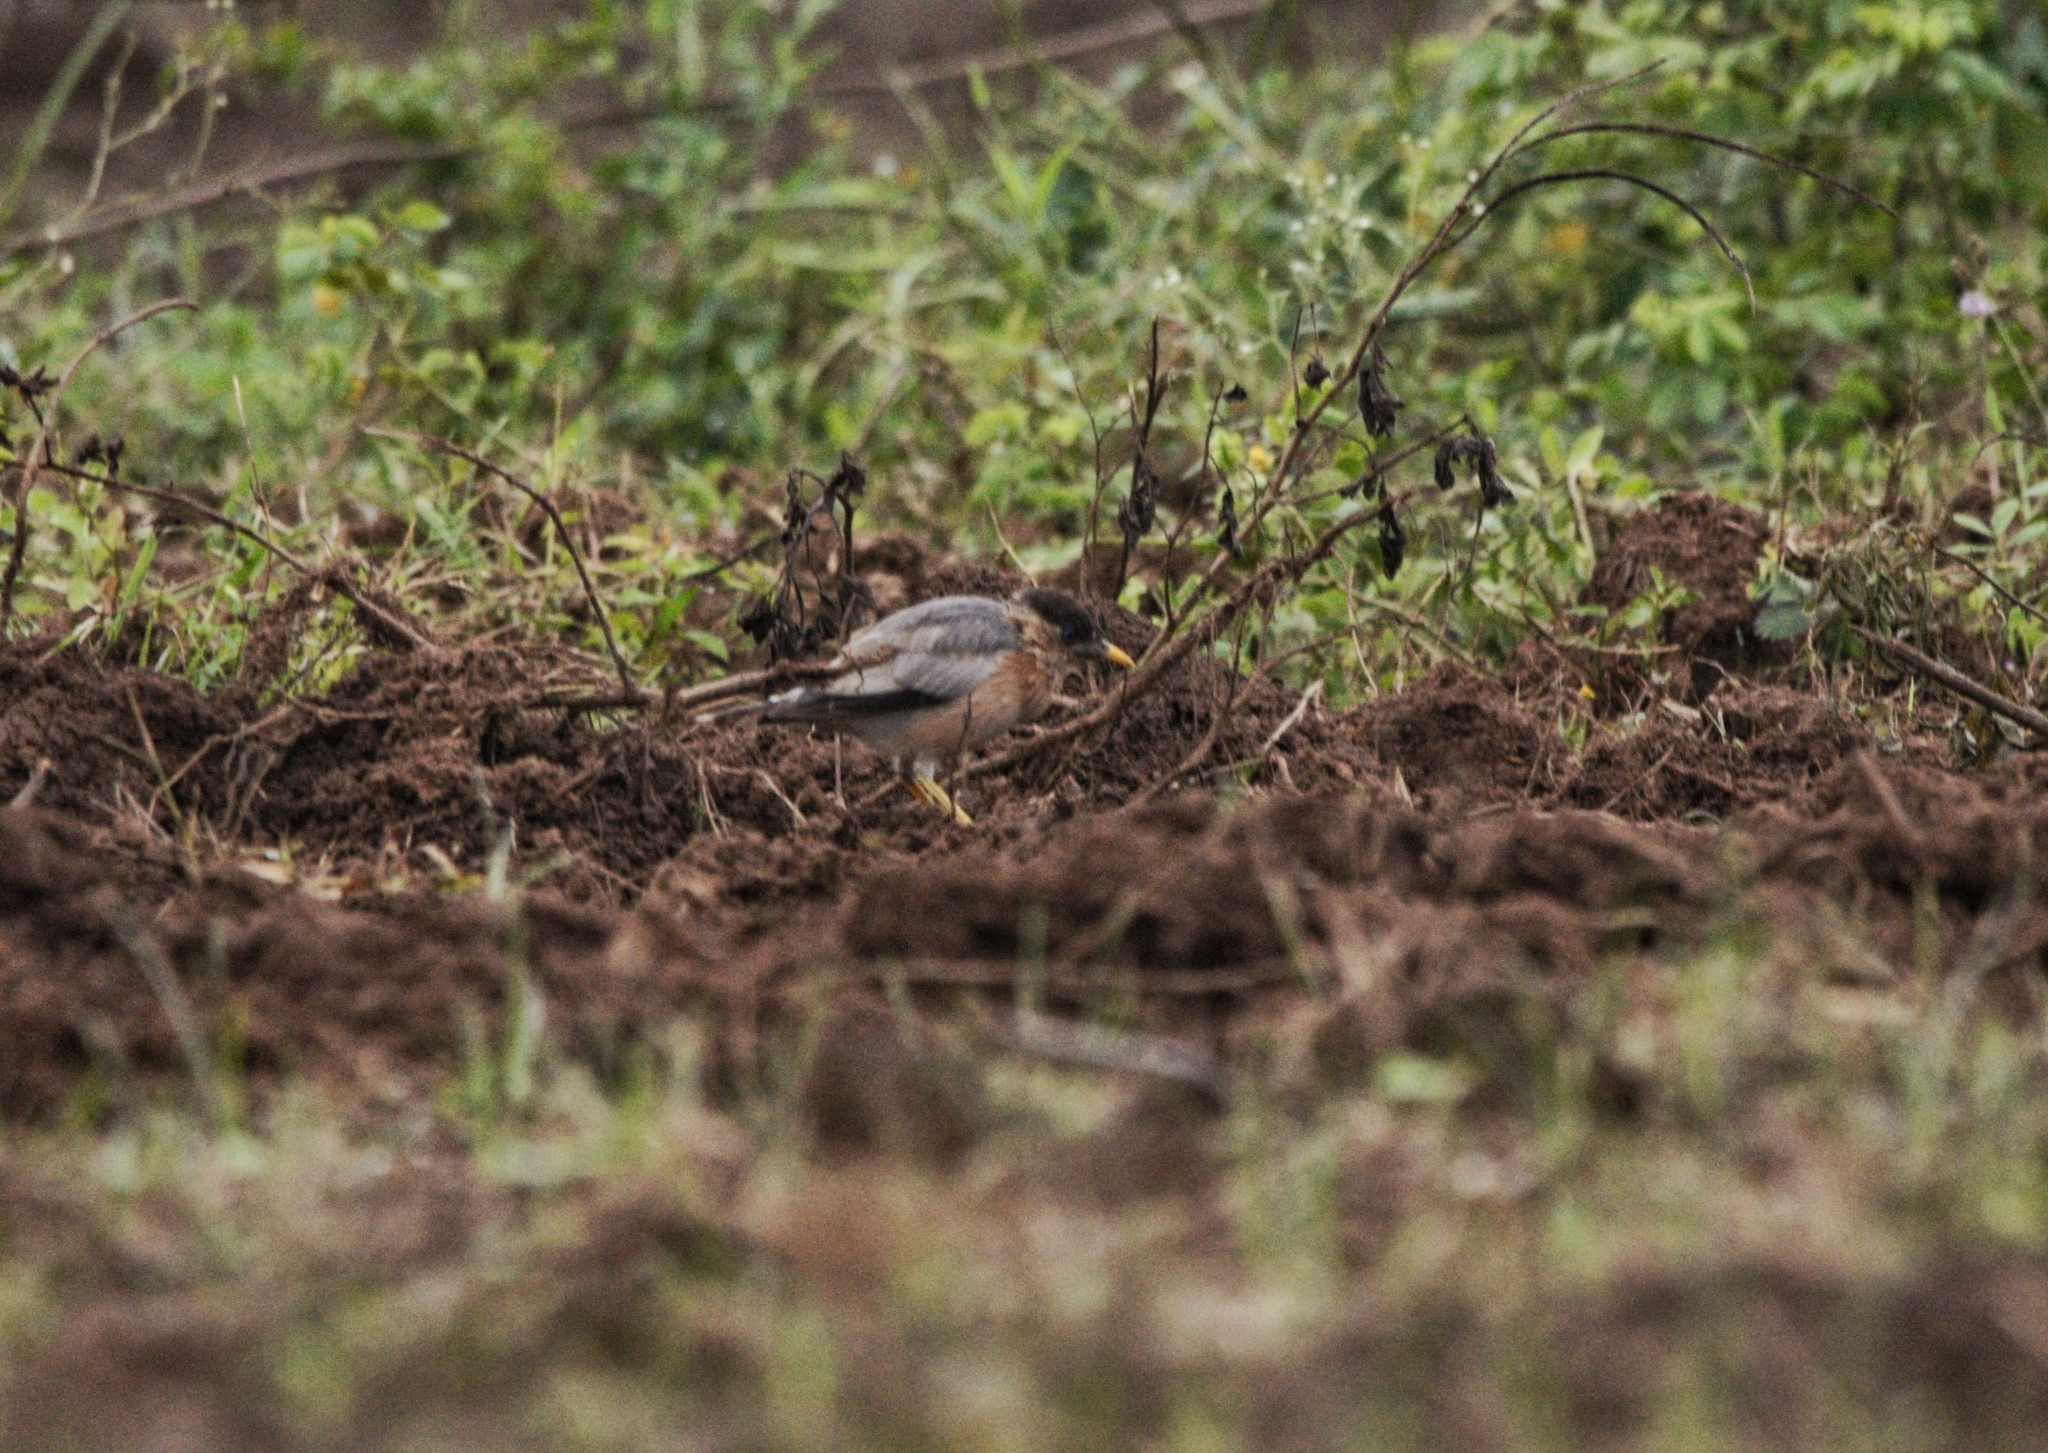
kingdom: Animalia
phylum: Chordata
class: Aves
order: Passeriformes
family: Sturnidae
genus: Sturnia
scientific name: Sturnia pagodarum
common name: Brahminy starling
